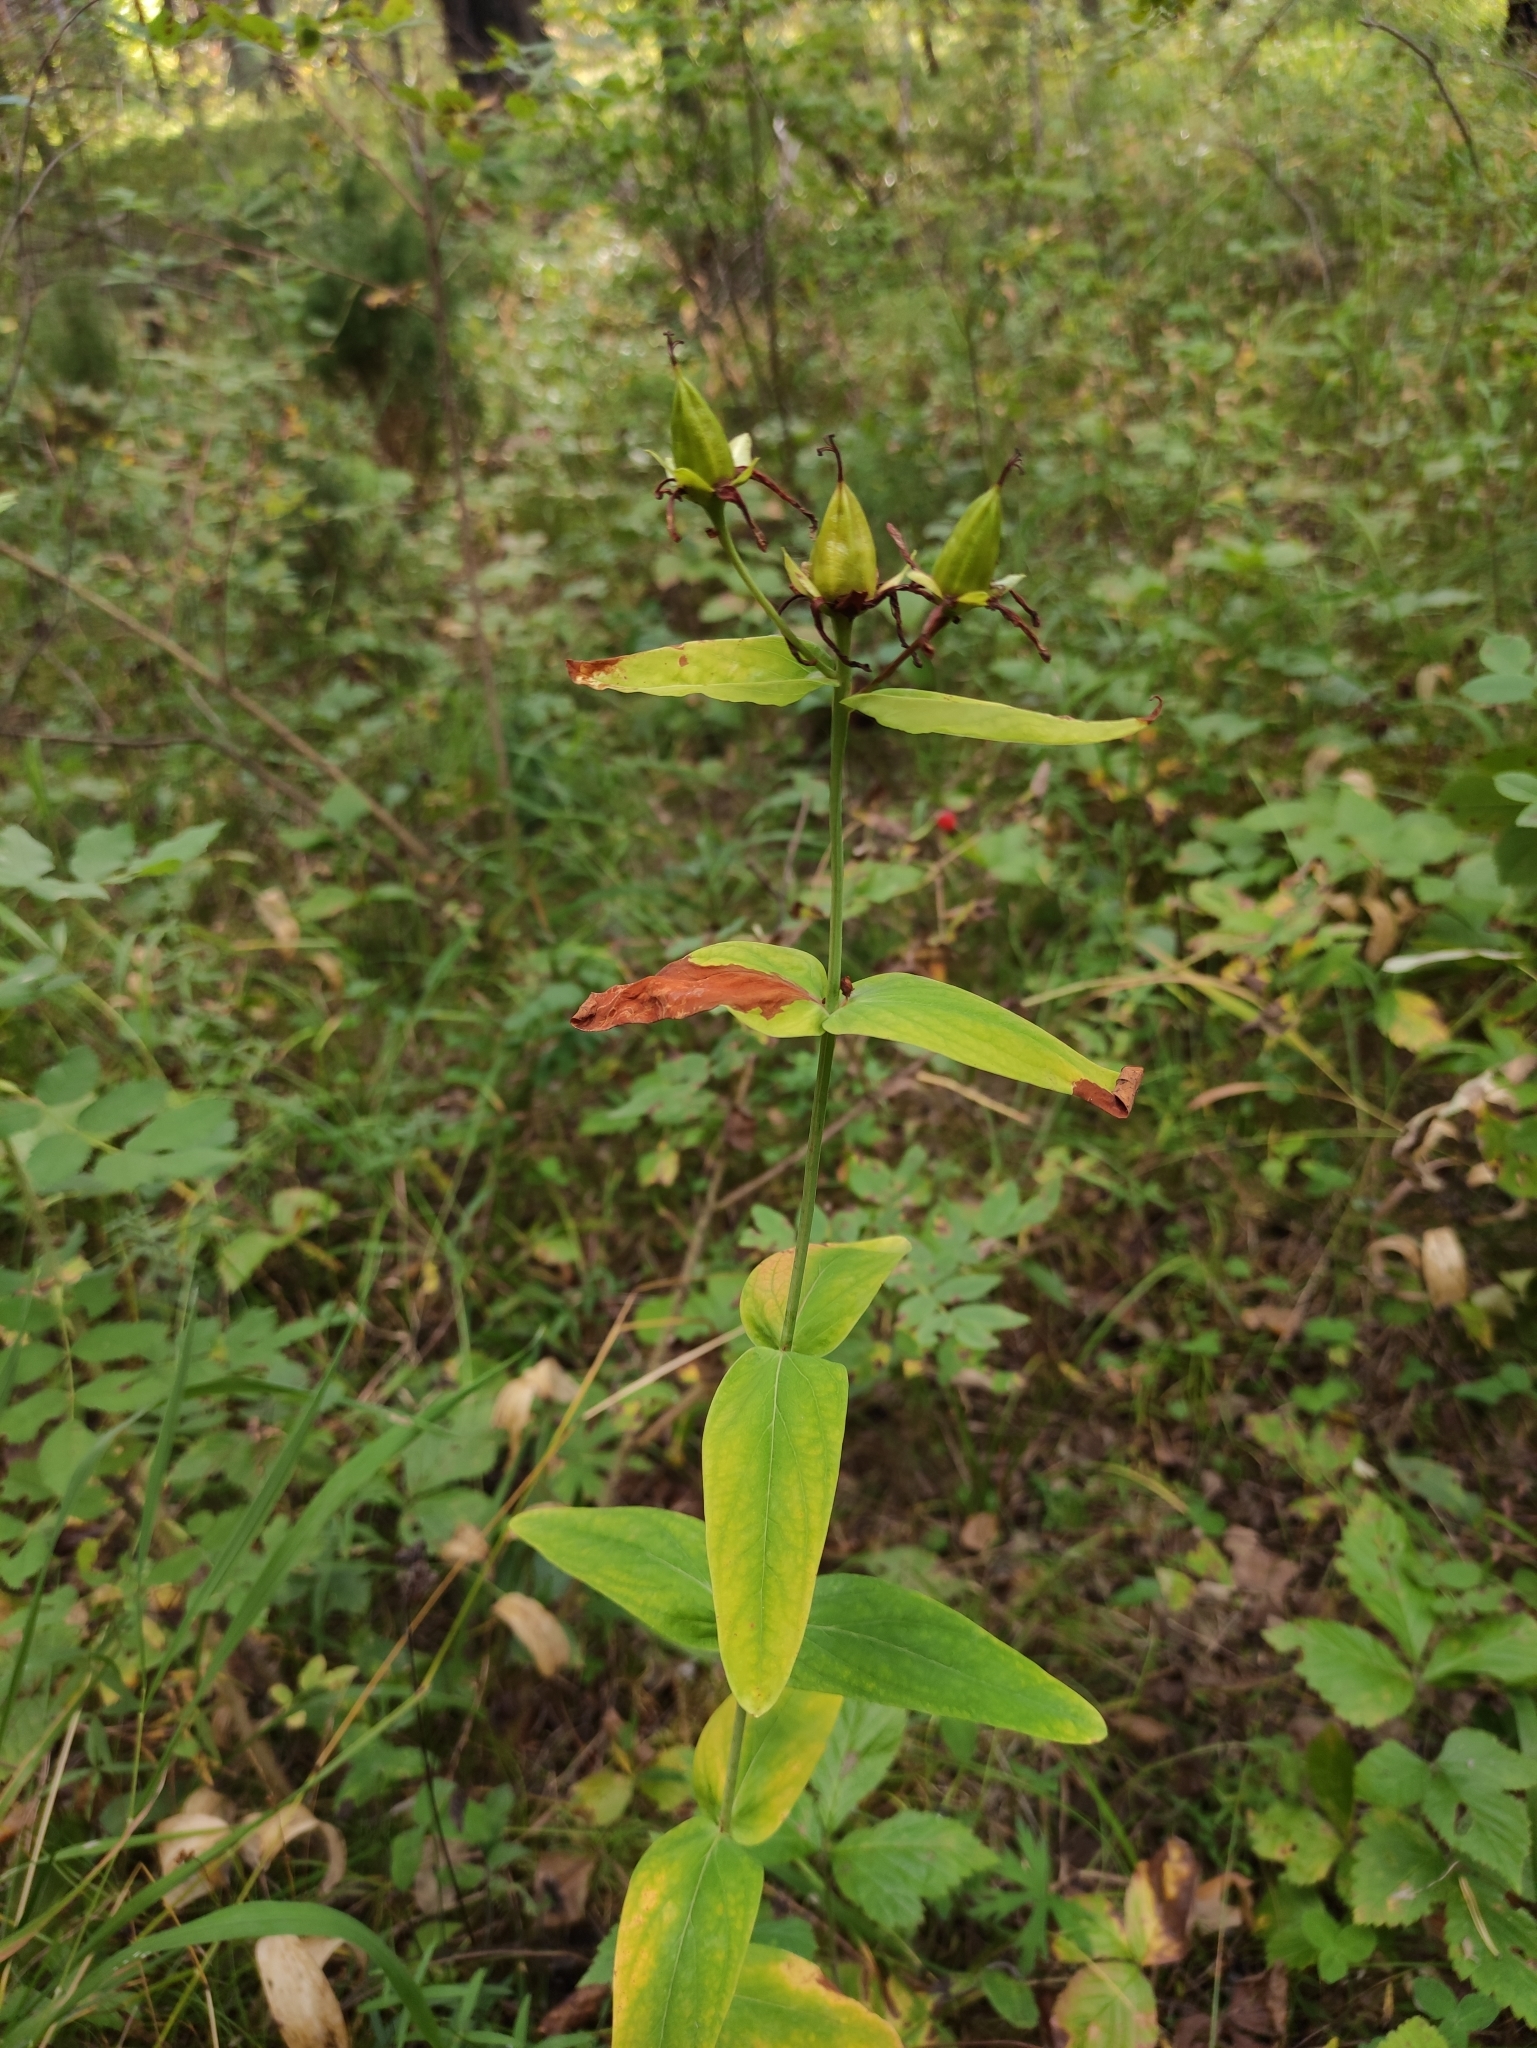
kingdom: Plantae
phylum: Tracheophyta
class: Magnoliopsida
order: Malpighiales
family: Hypericaceae
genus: Hypericum
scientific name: Hypericum ascyron
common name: Giant st. john's-wort
